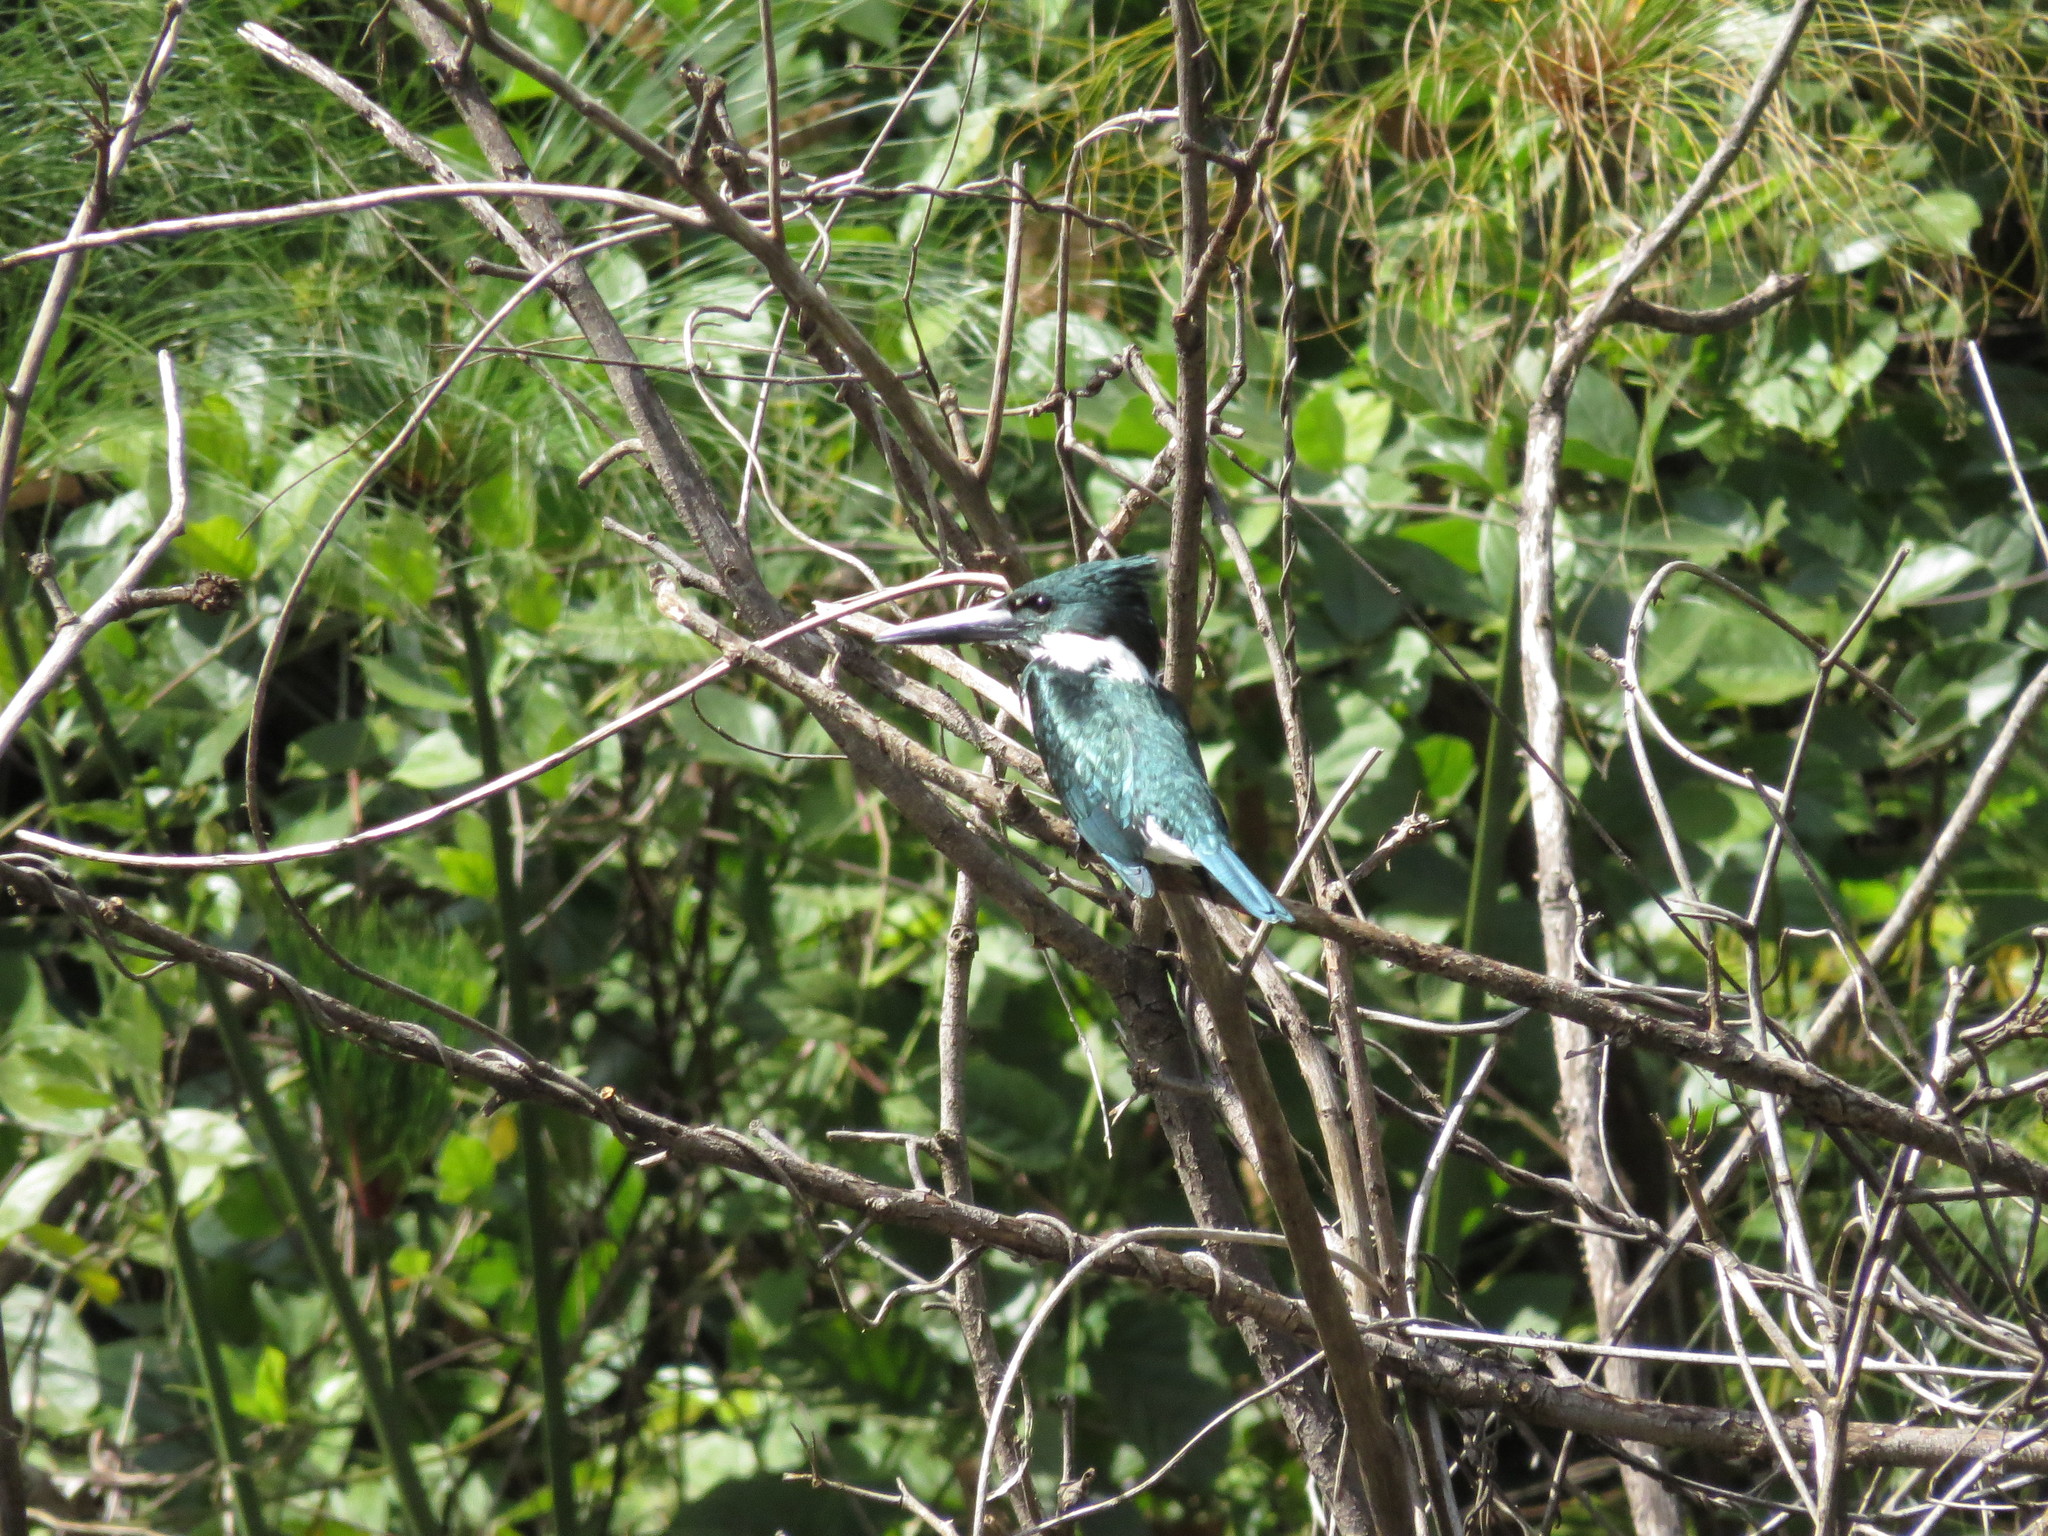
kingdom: Animalia
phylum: Chordata
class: Aves
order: Coraciiformes
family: Alcedinidae
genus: Chloroceryle
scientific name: Chloroceryle amazona
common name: Amazon kingfisher
